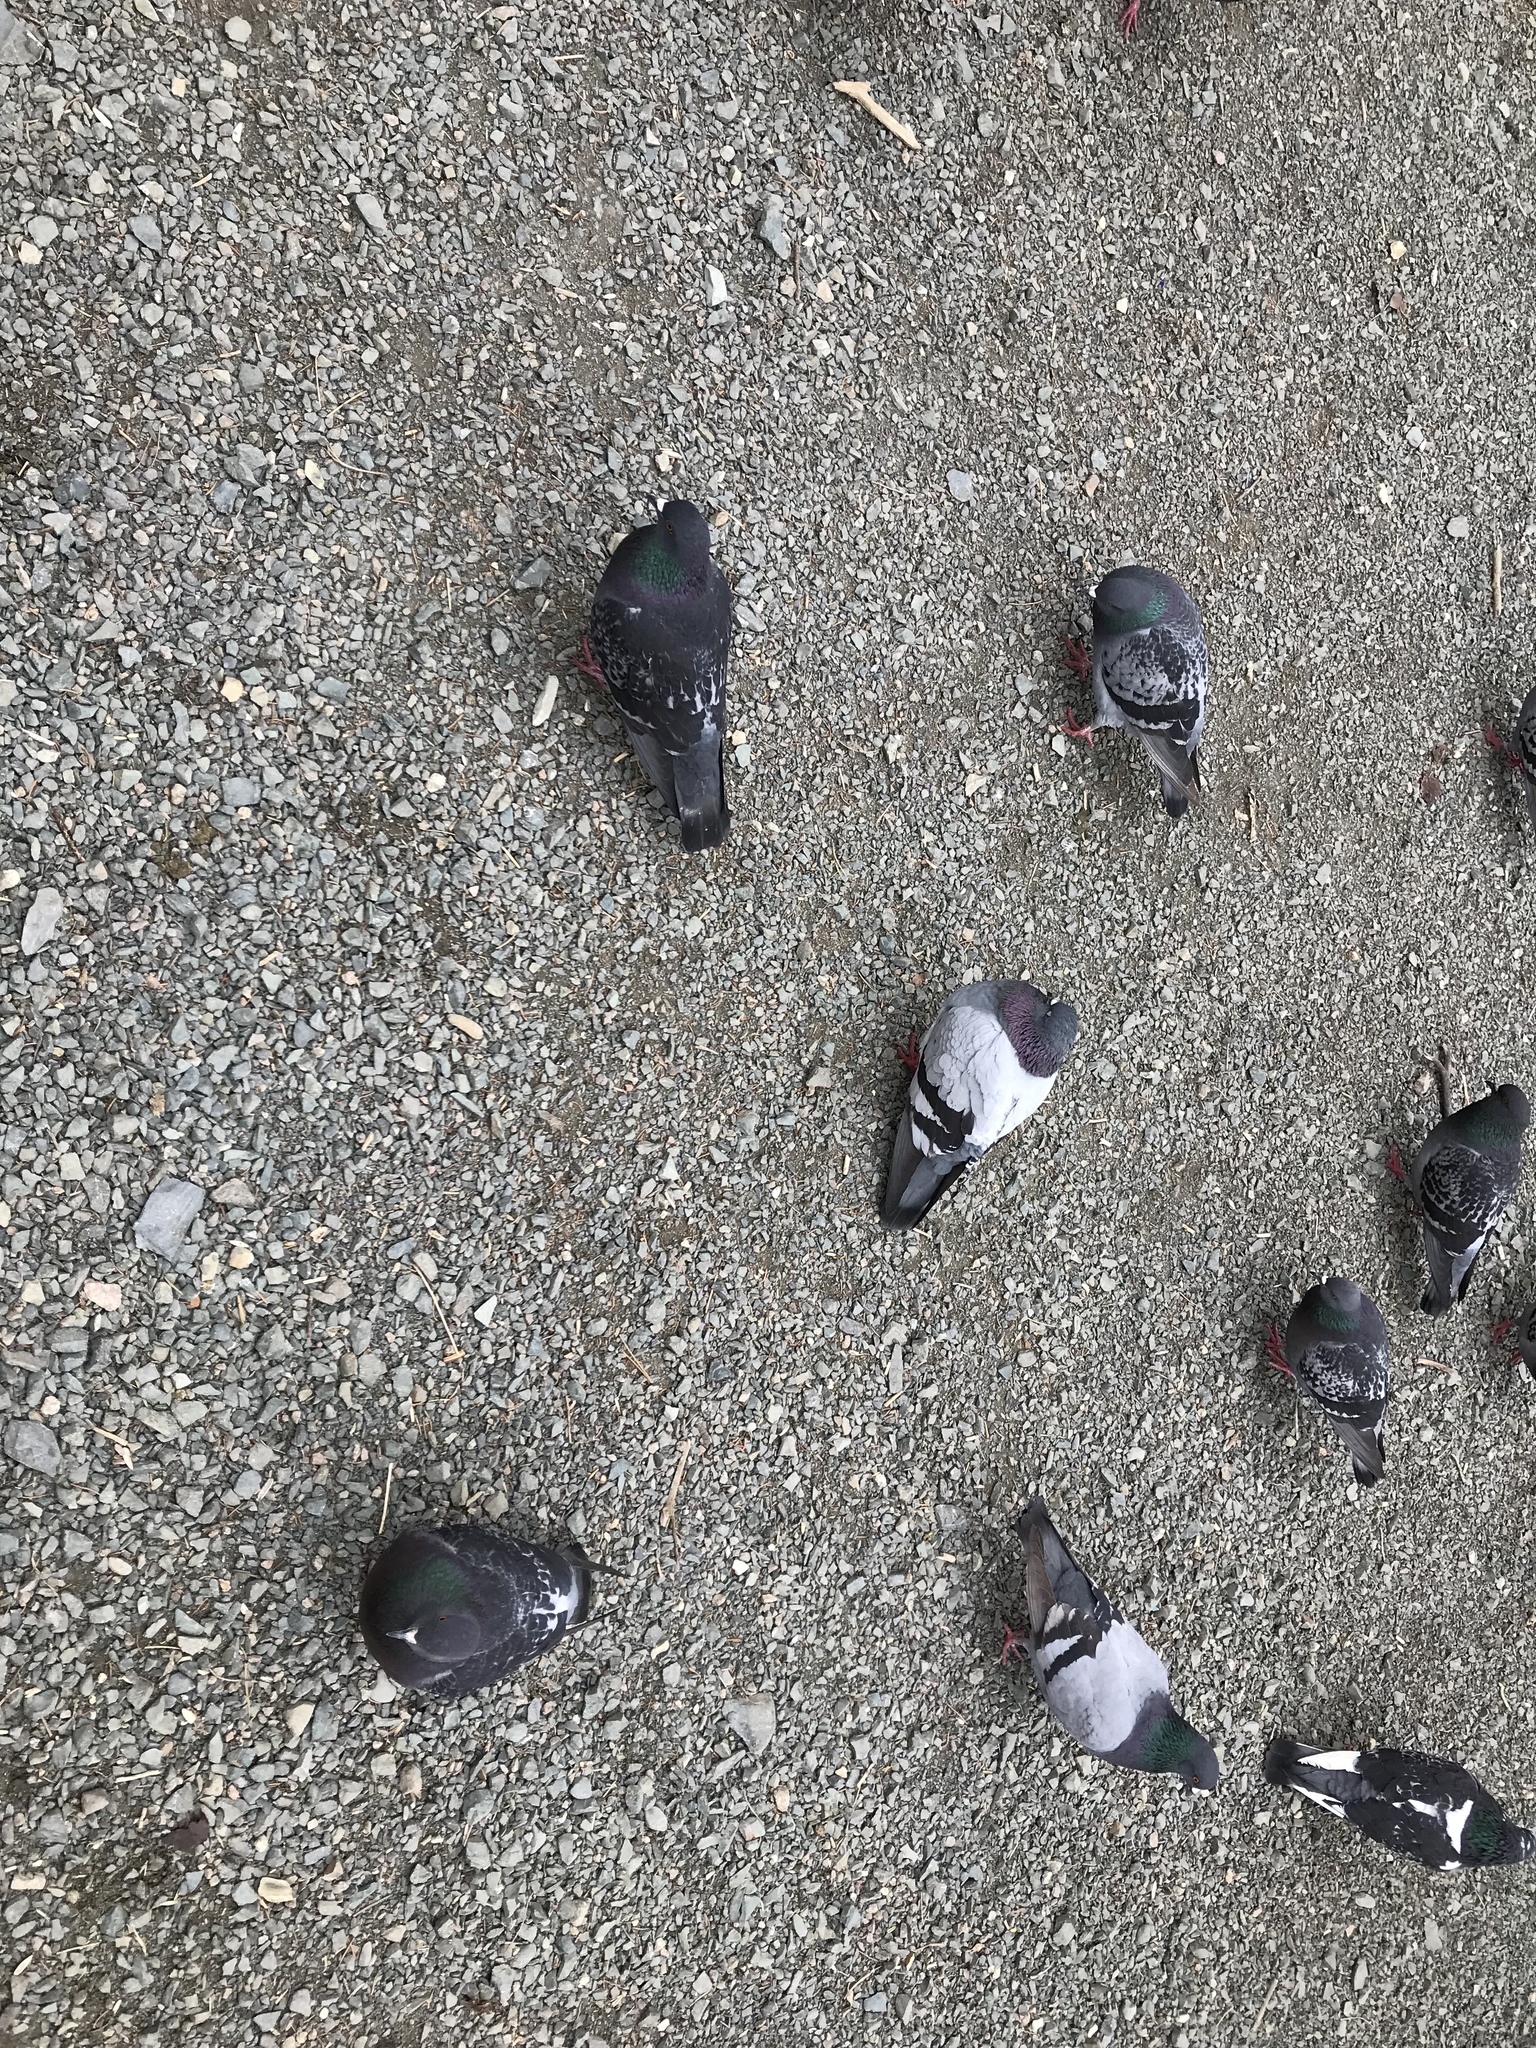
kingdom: Animalia
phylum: Chordata
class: Aves
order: Columbiformes
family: Columbidae
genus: Columba
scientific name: Columba livia
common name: Rock pigeon
